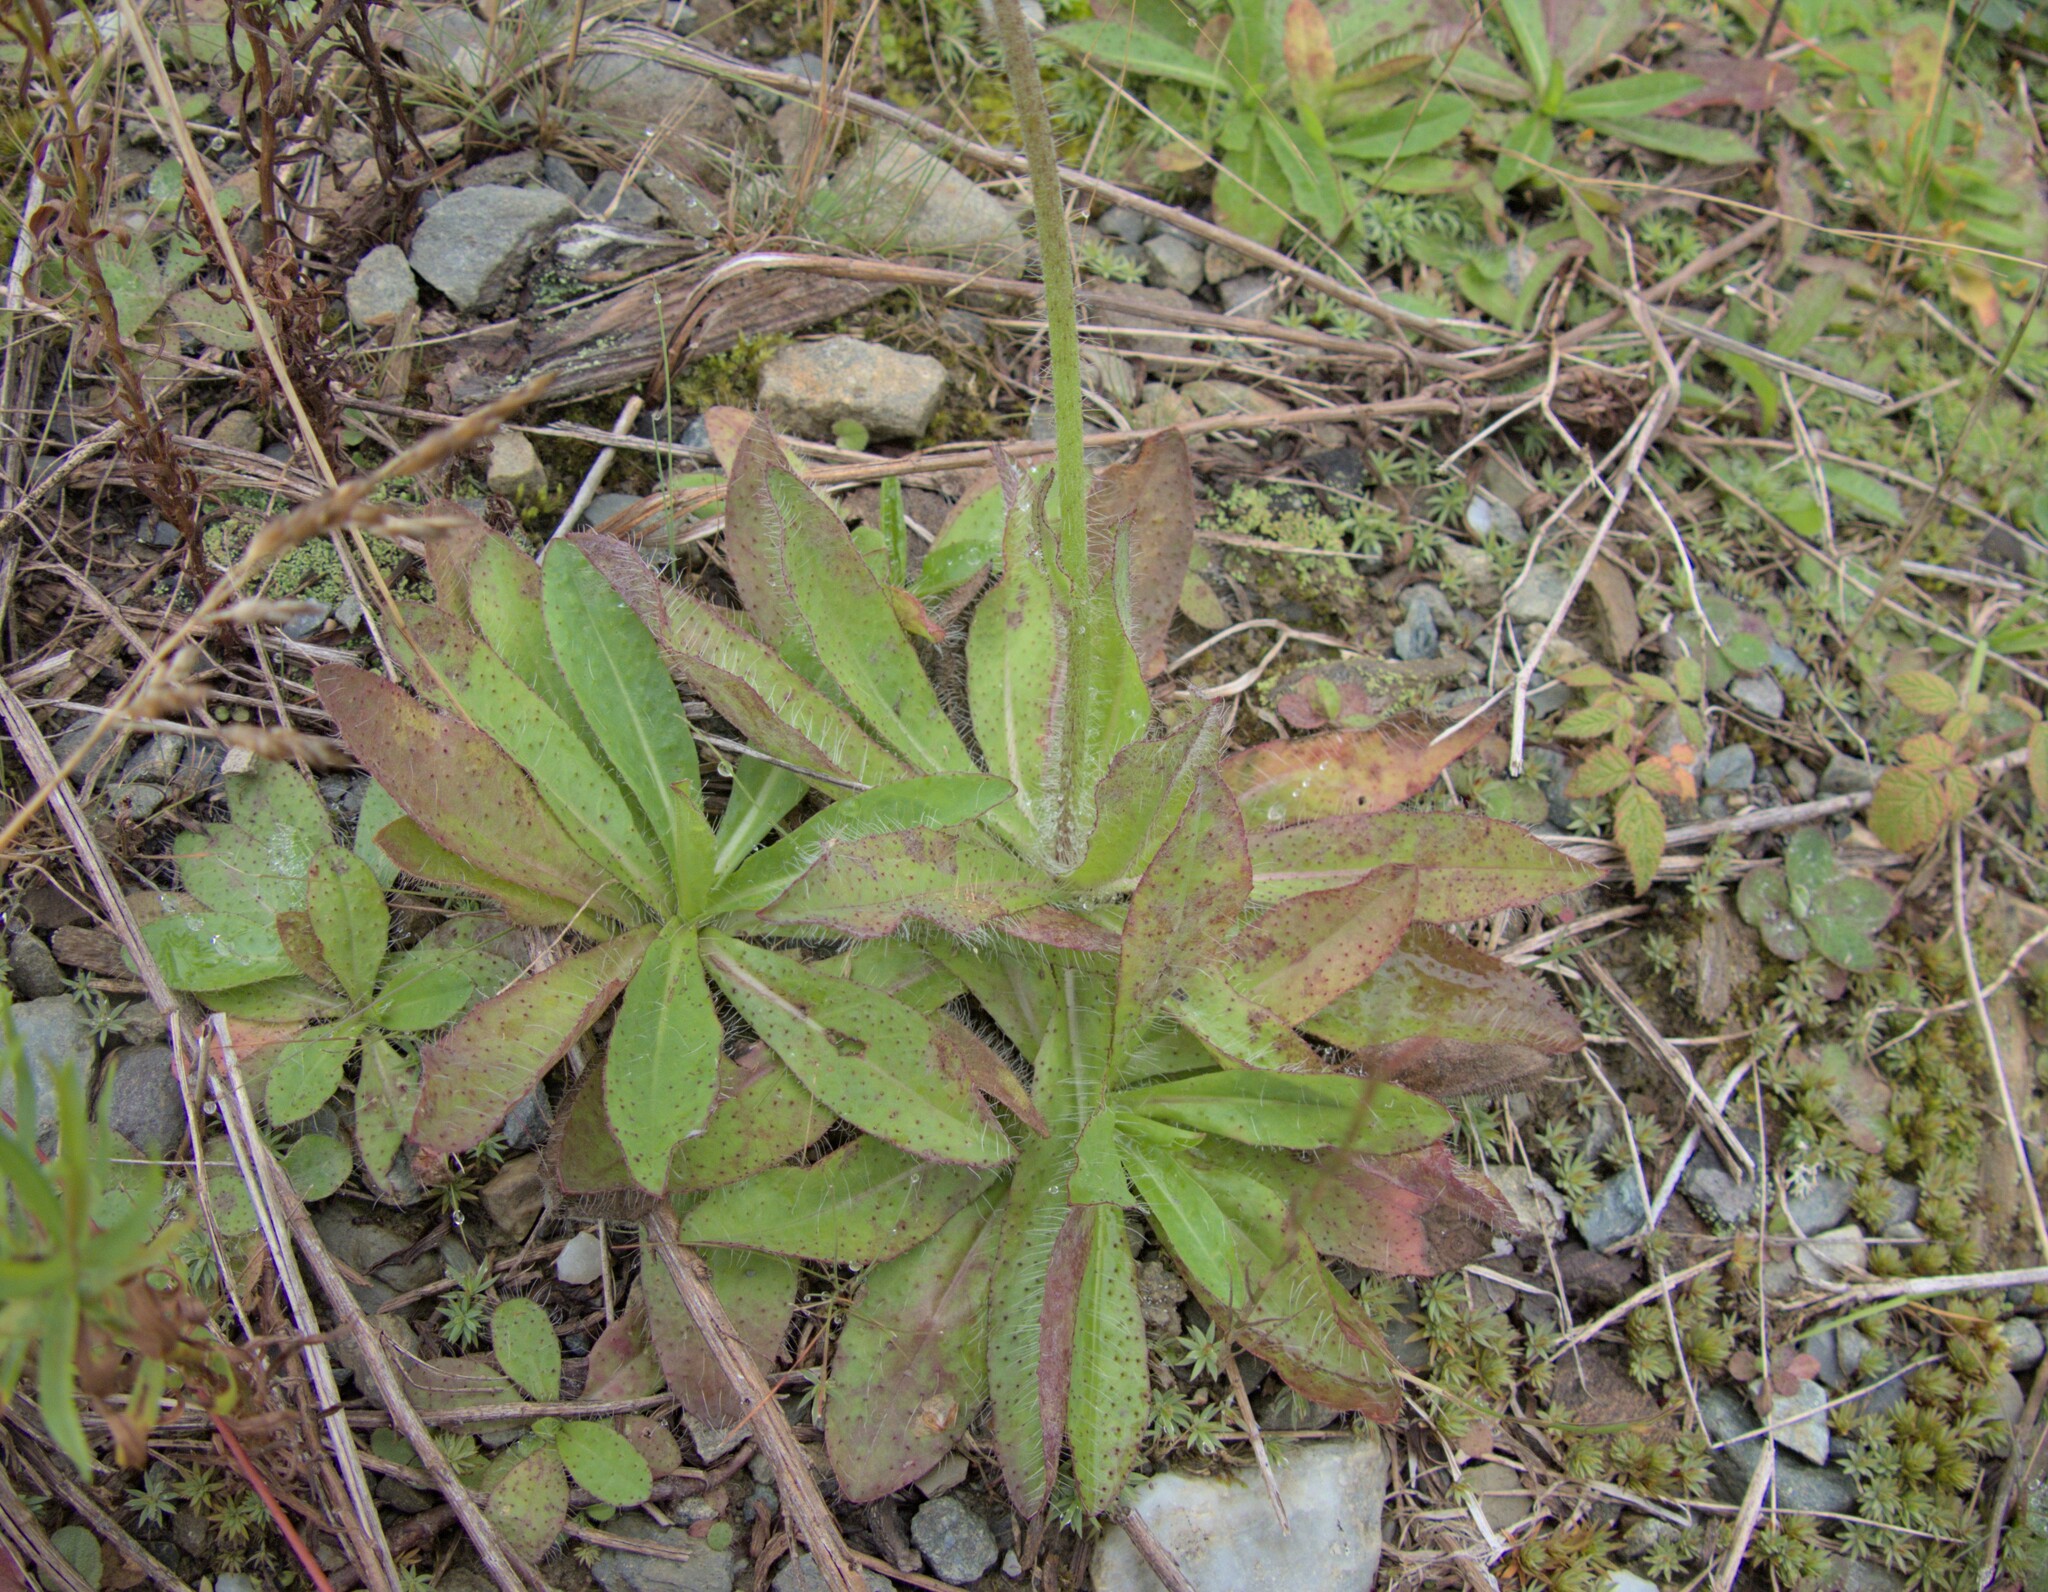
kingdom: Plantae
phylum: Tracheophyta
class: Magnoliopsida
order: Asterales
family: Asteraceae
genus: Pilosella
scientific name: Pilosella aurantiaca
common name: Fox-and-cubs
